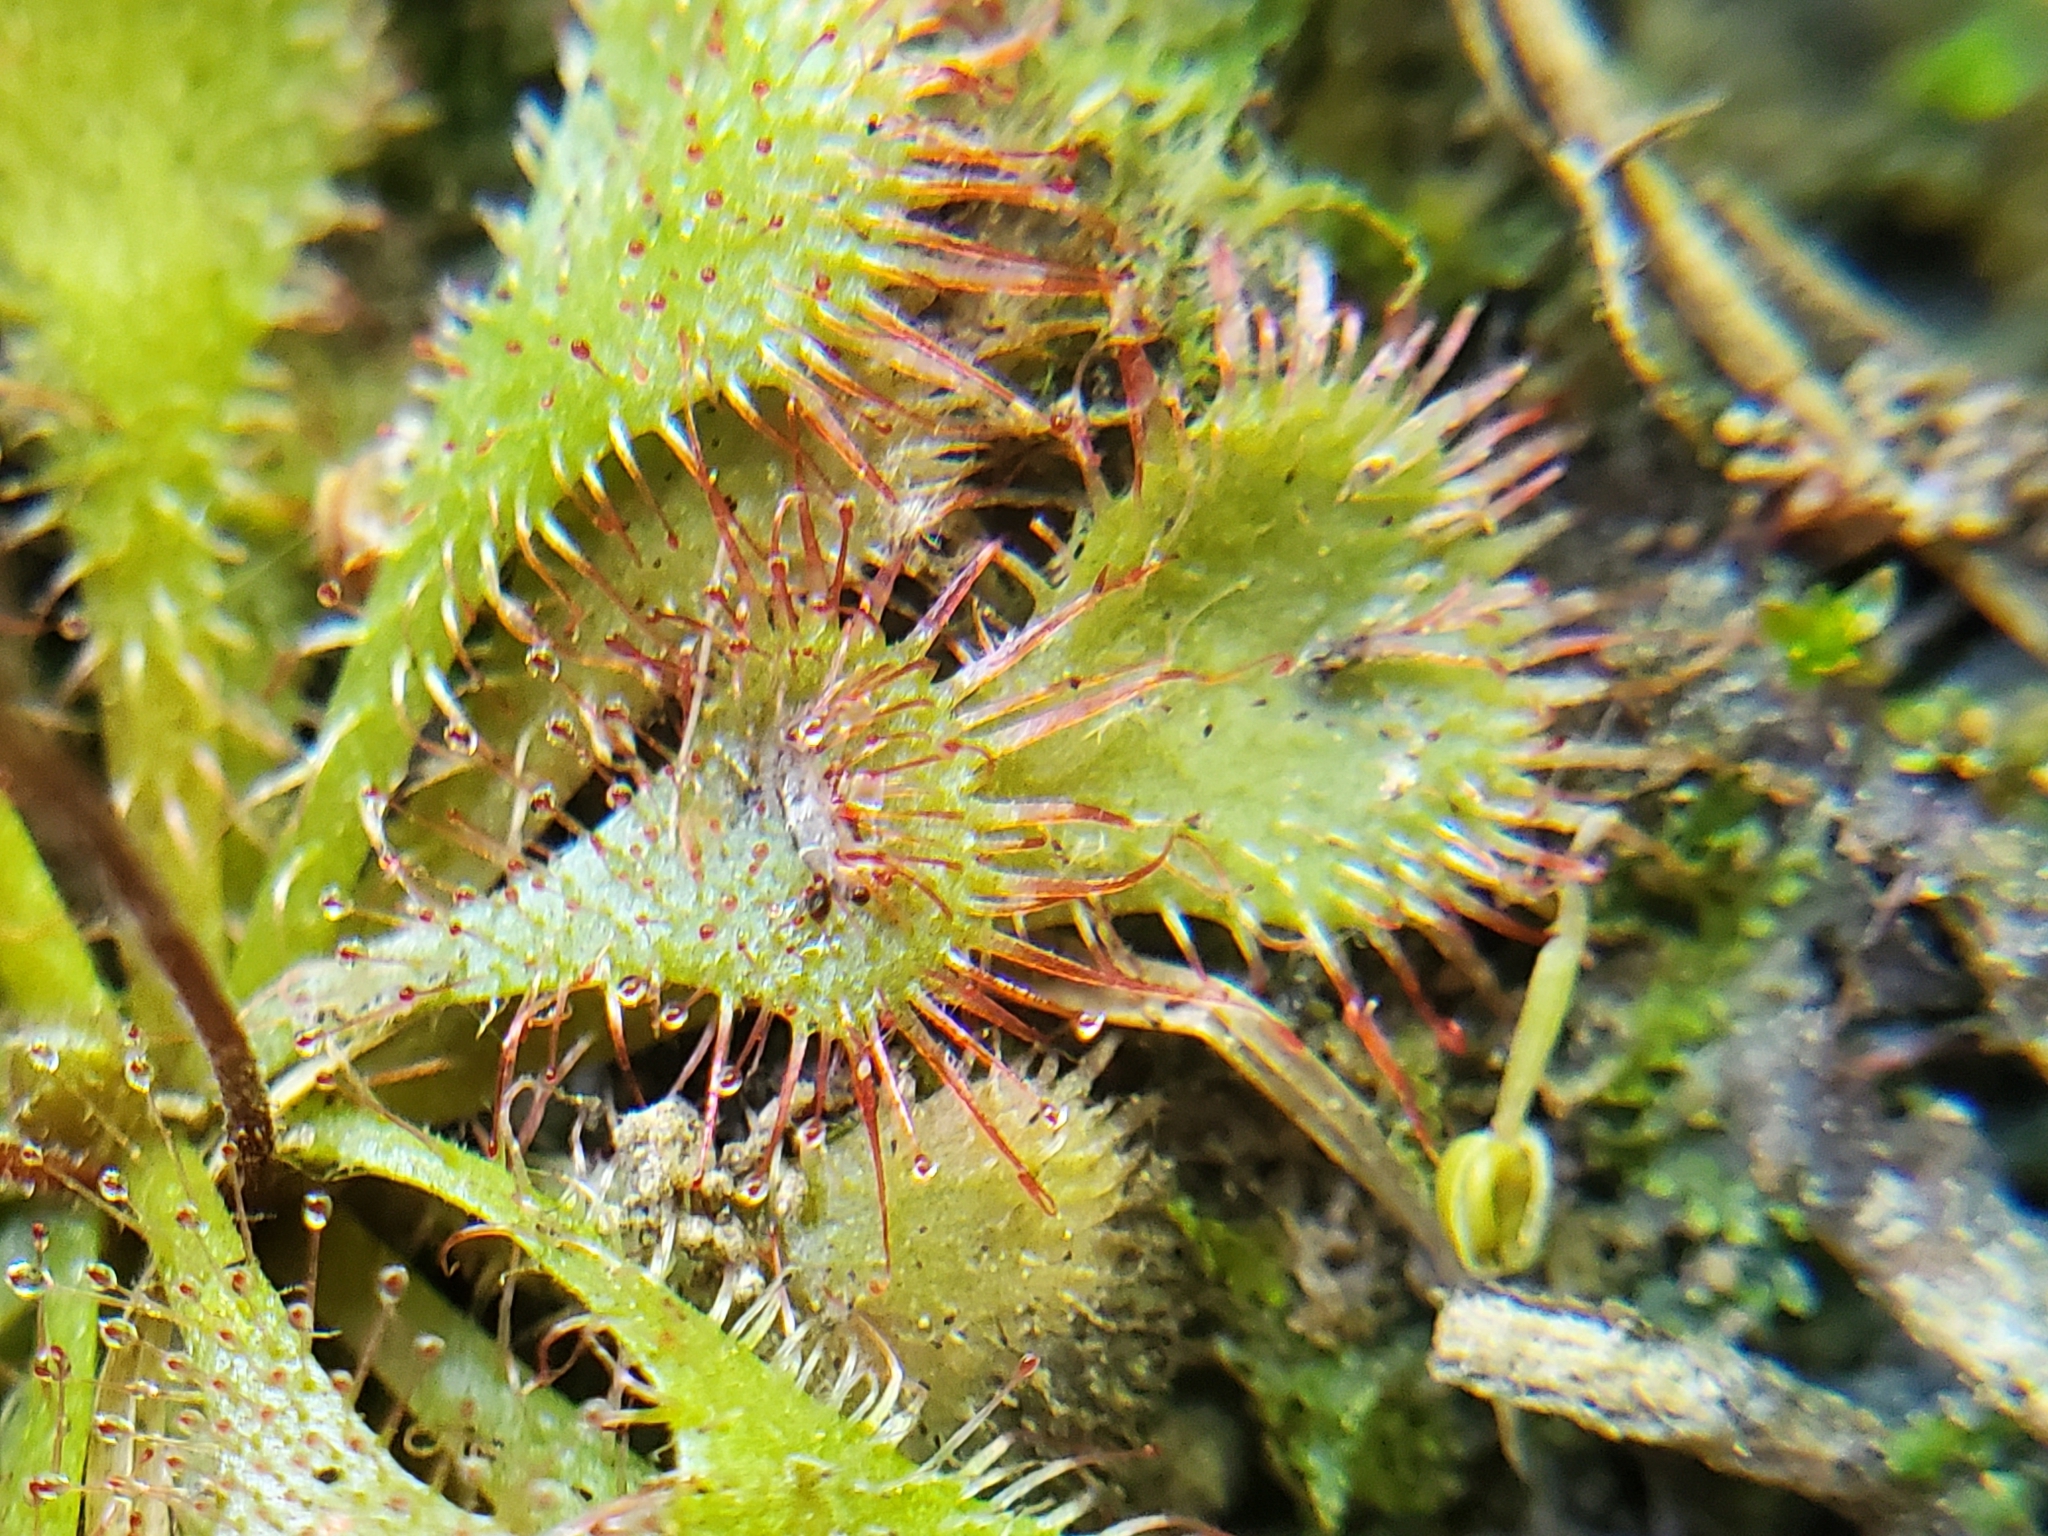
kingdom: Plantae
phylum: Tracheophyta
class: Magnoliopsida
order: Caryophyllales
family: Droseraceae
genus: Drosera
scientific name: Drosera brevifolia
